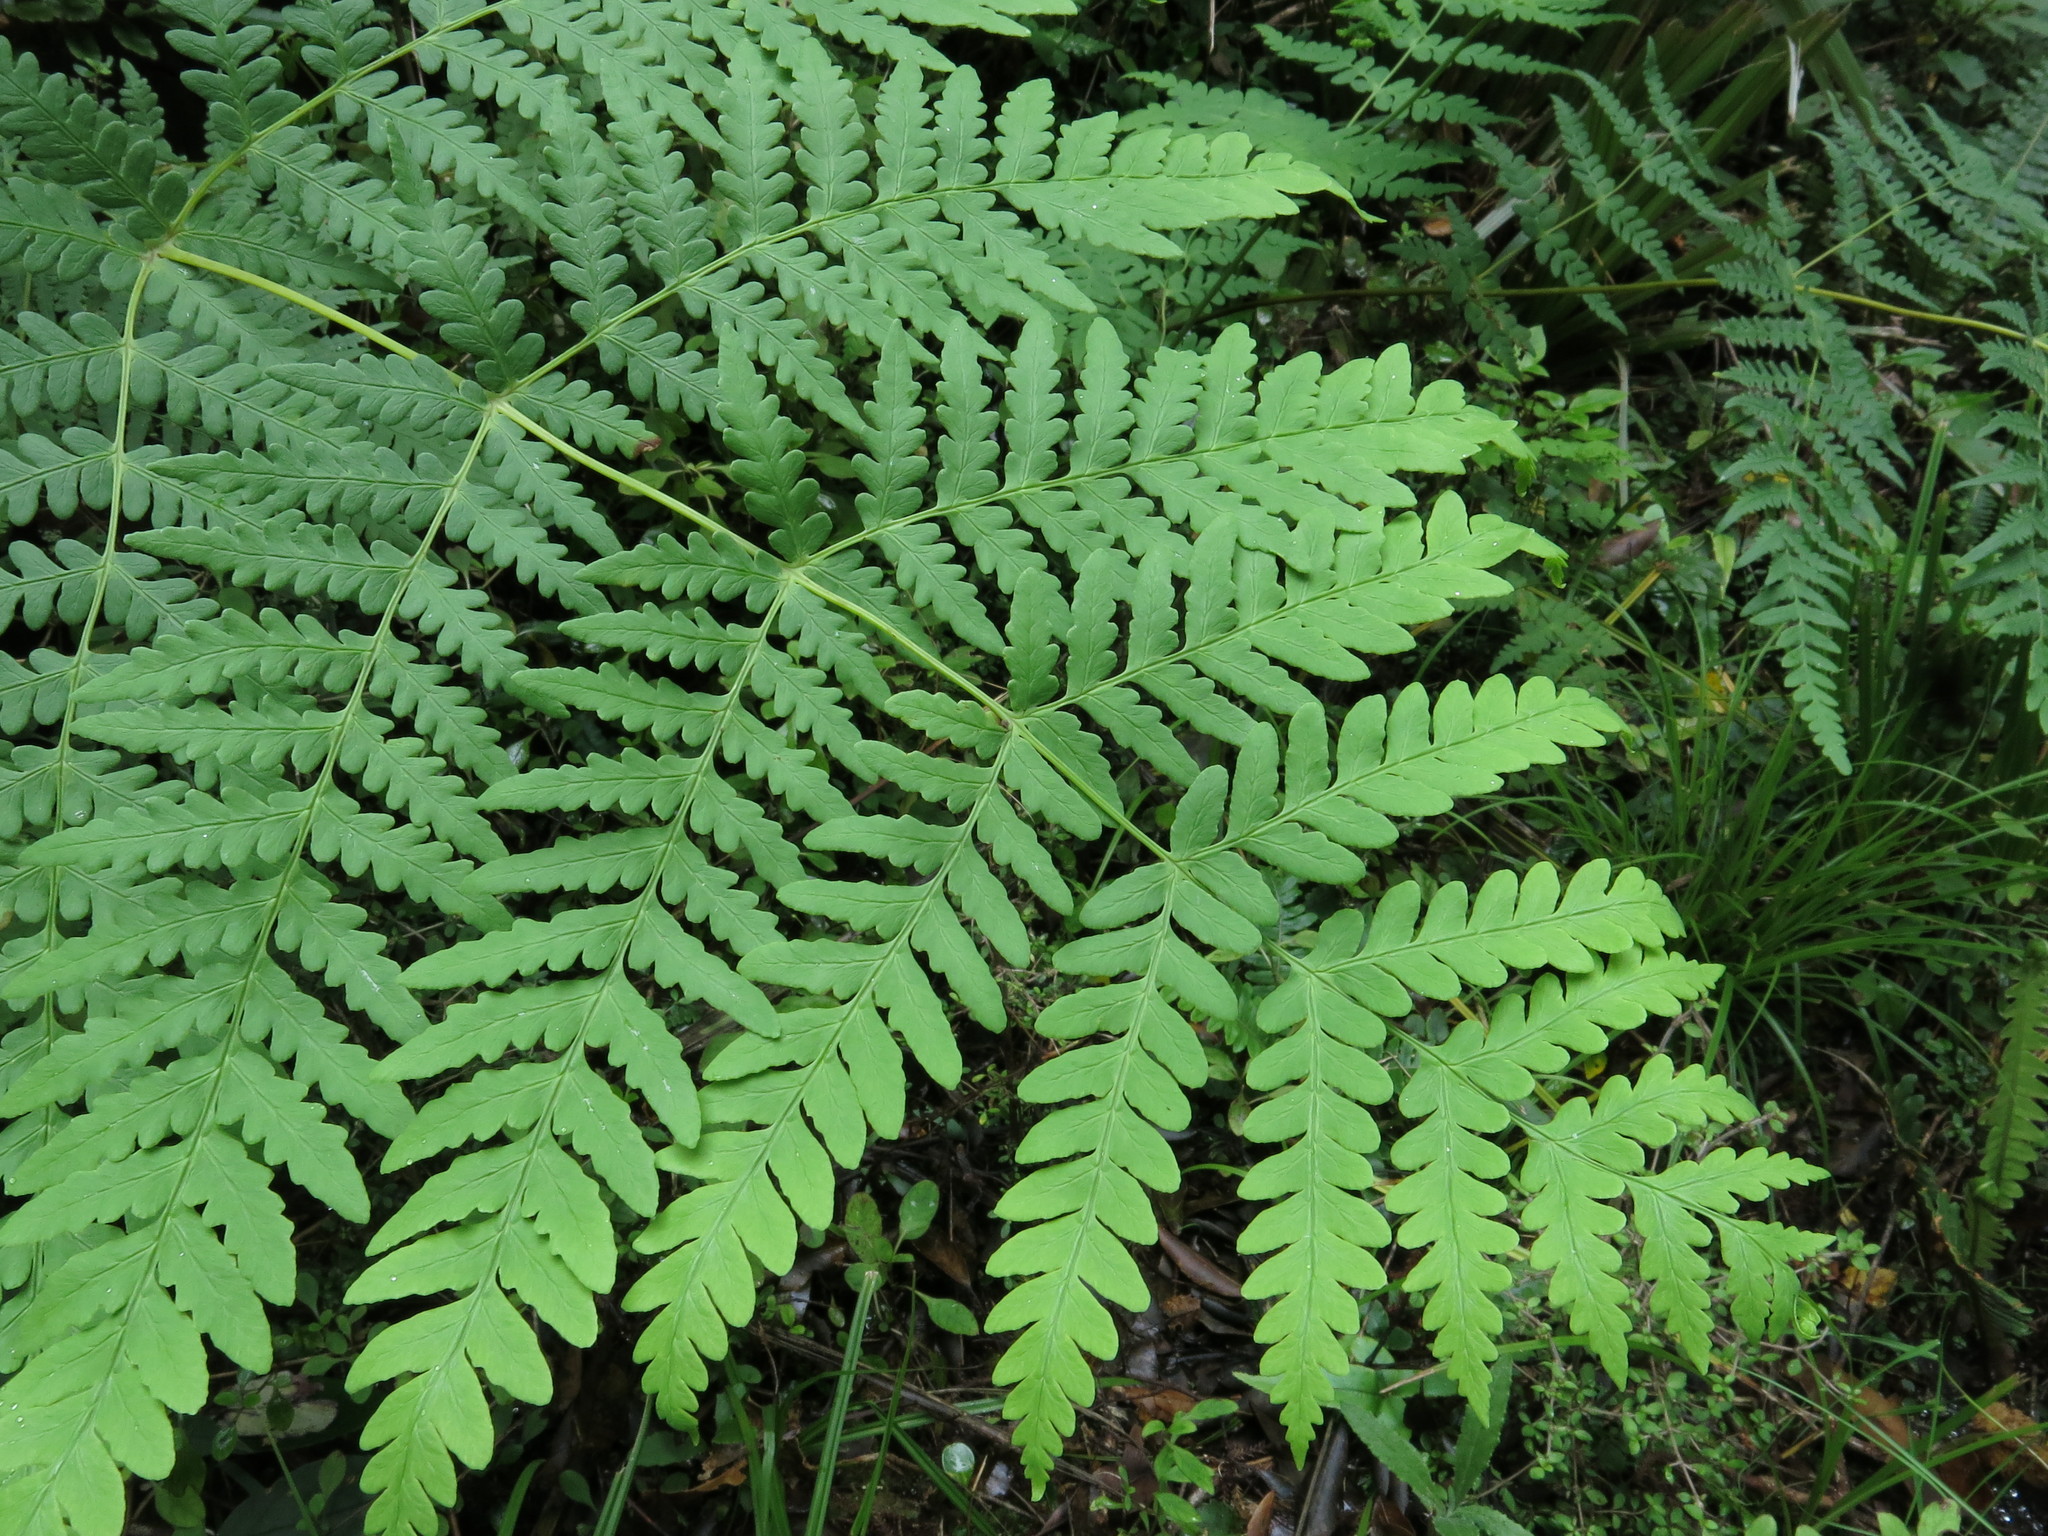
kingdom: Plantae
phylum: Tracheophyta
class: Polypodiopsida
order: Polypodiales
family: Dennstaedtiaceae
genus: Histiopteris
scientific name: Histiopteris incisa
